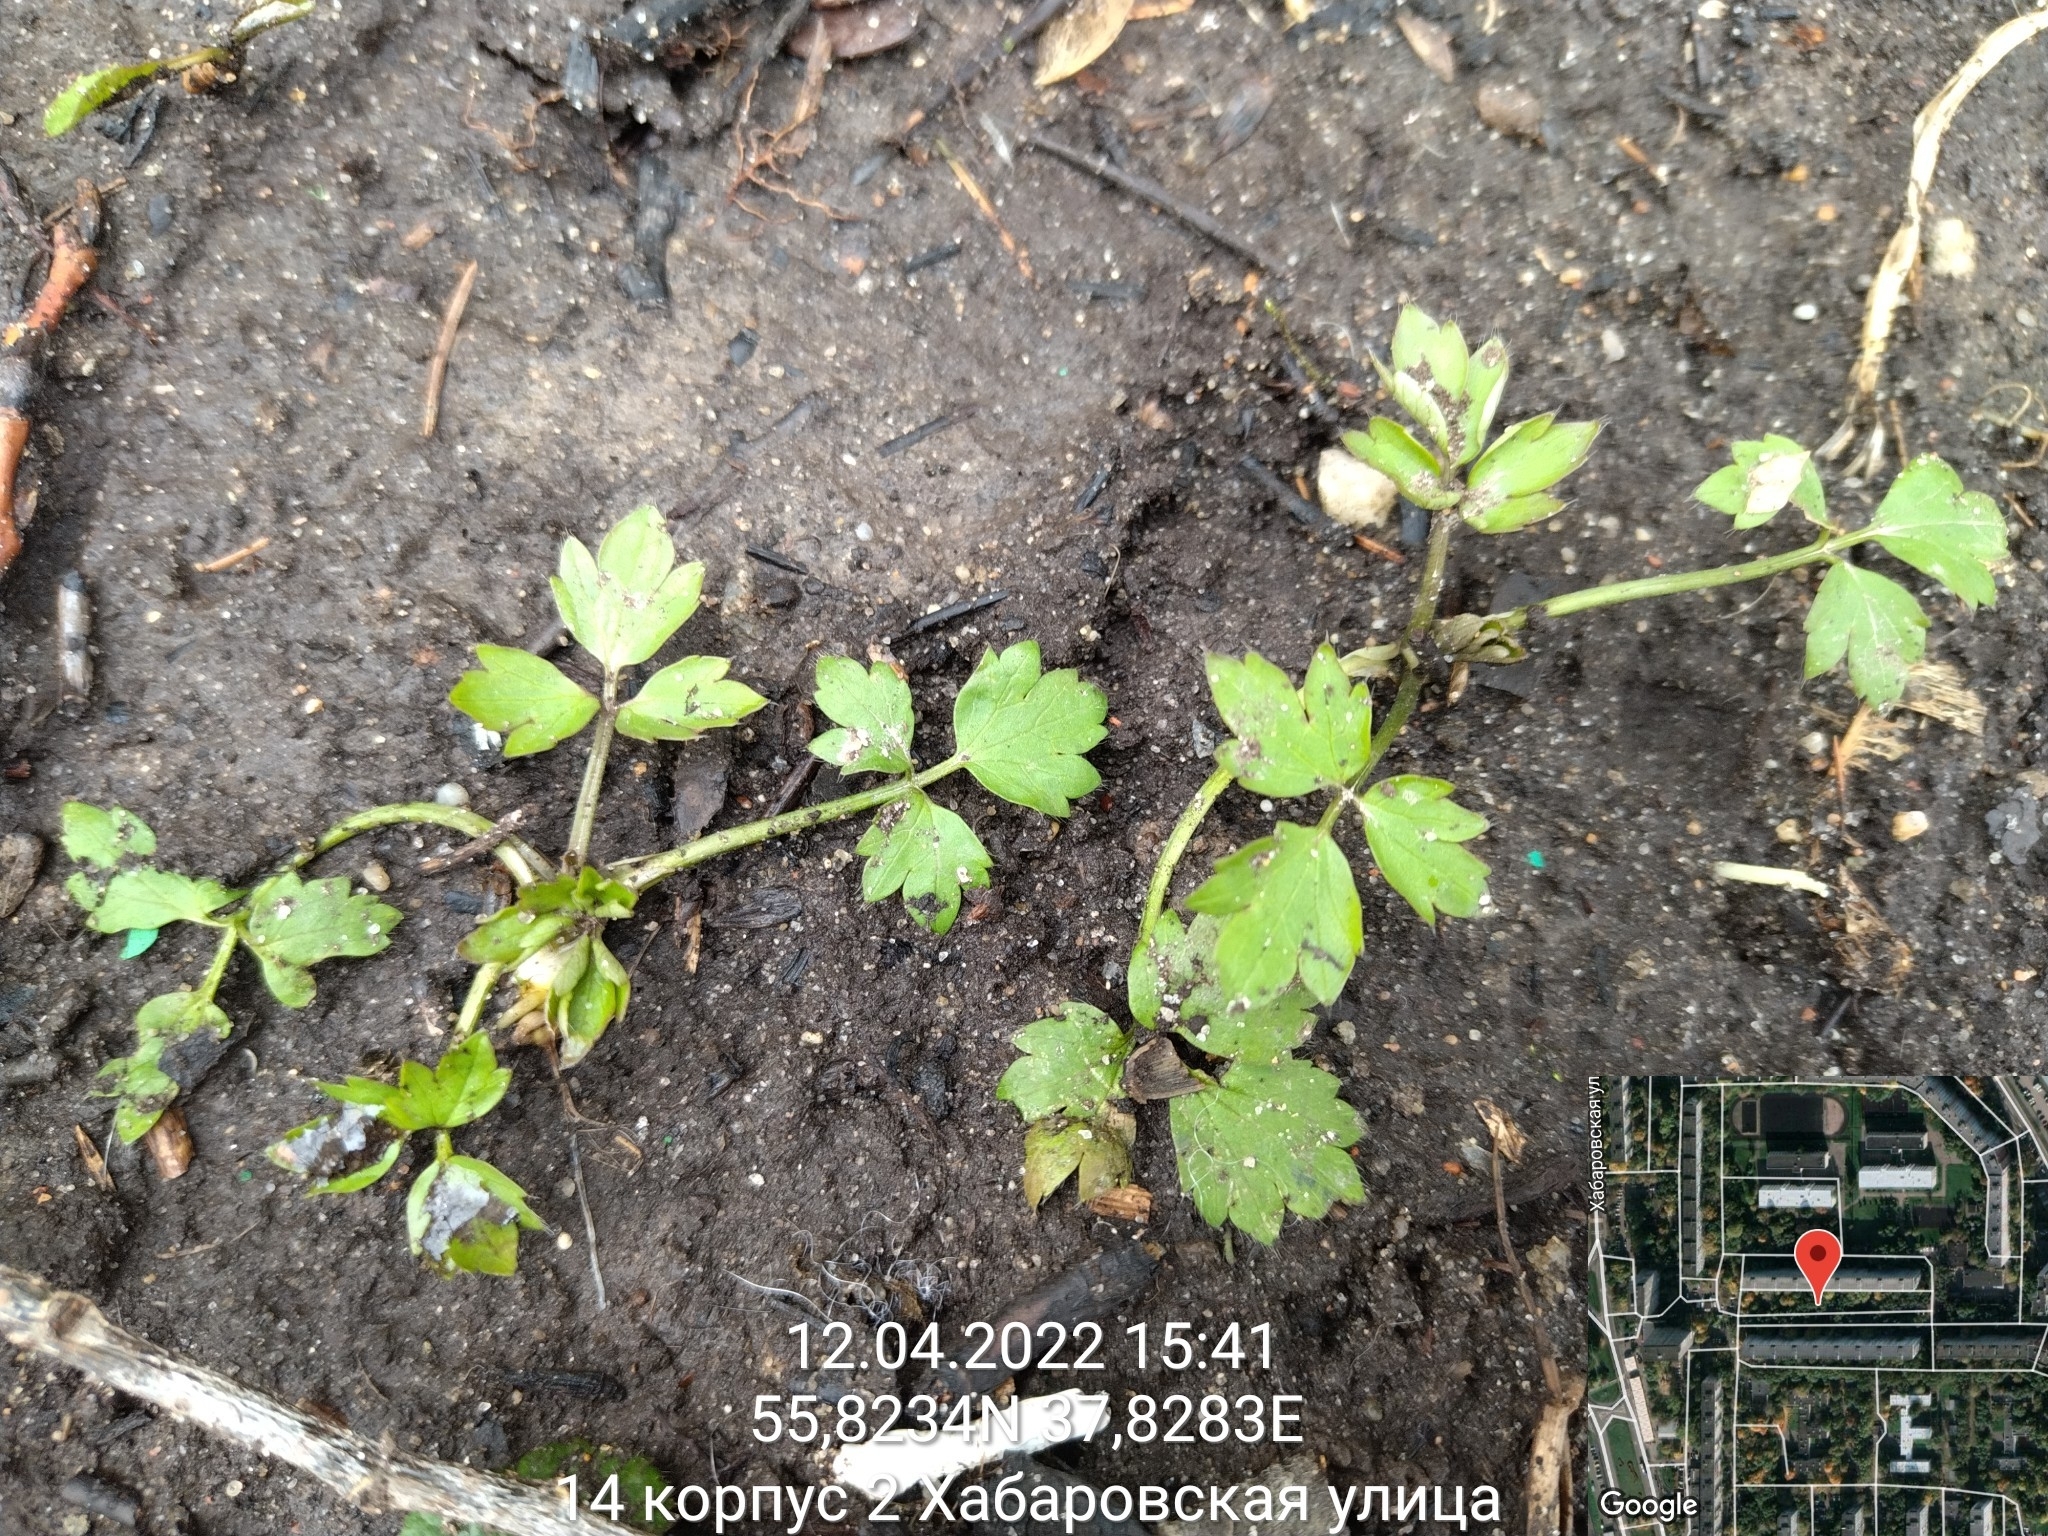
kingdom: Plantae
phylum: Tracheophyta
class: Magnoliopsida
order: Ranunculales
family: Ranunculaceae
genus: Ranunculus
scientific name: Ranunculus repens
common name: Creeping buttercup
